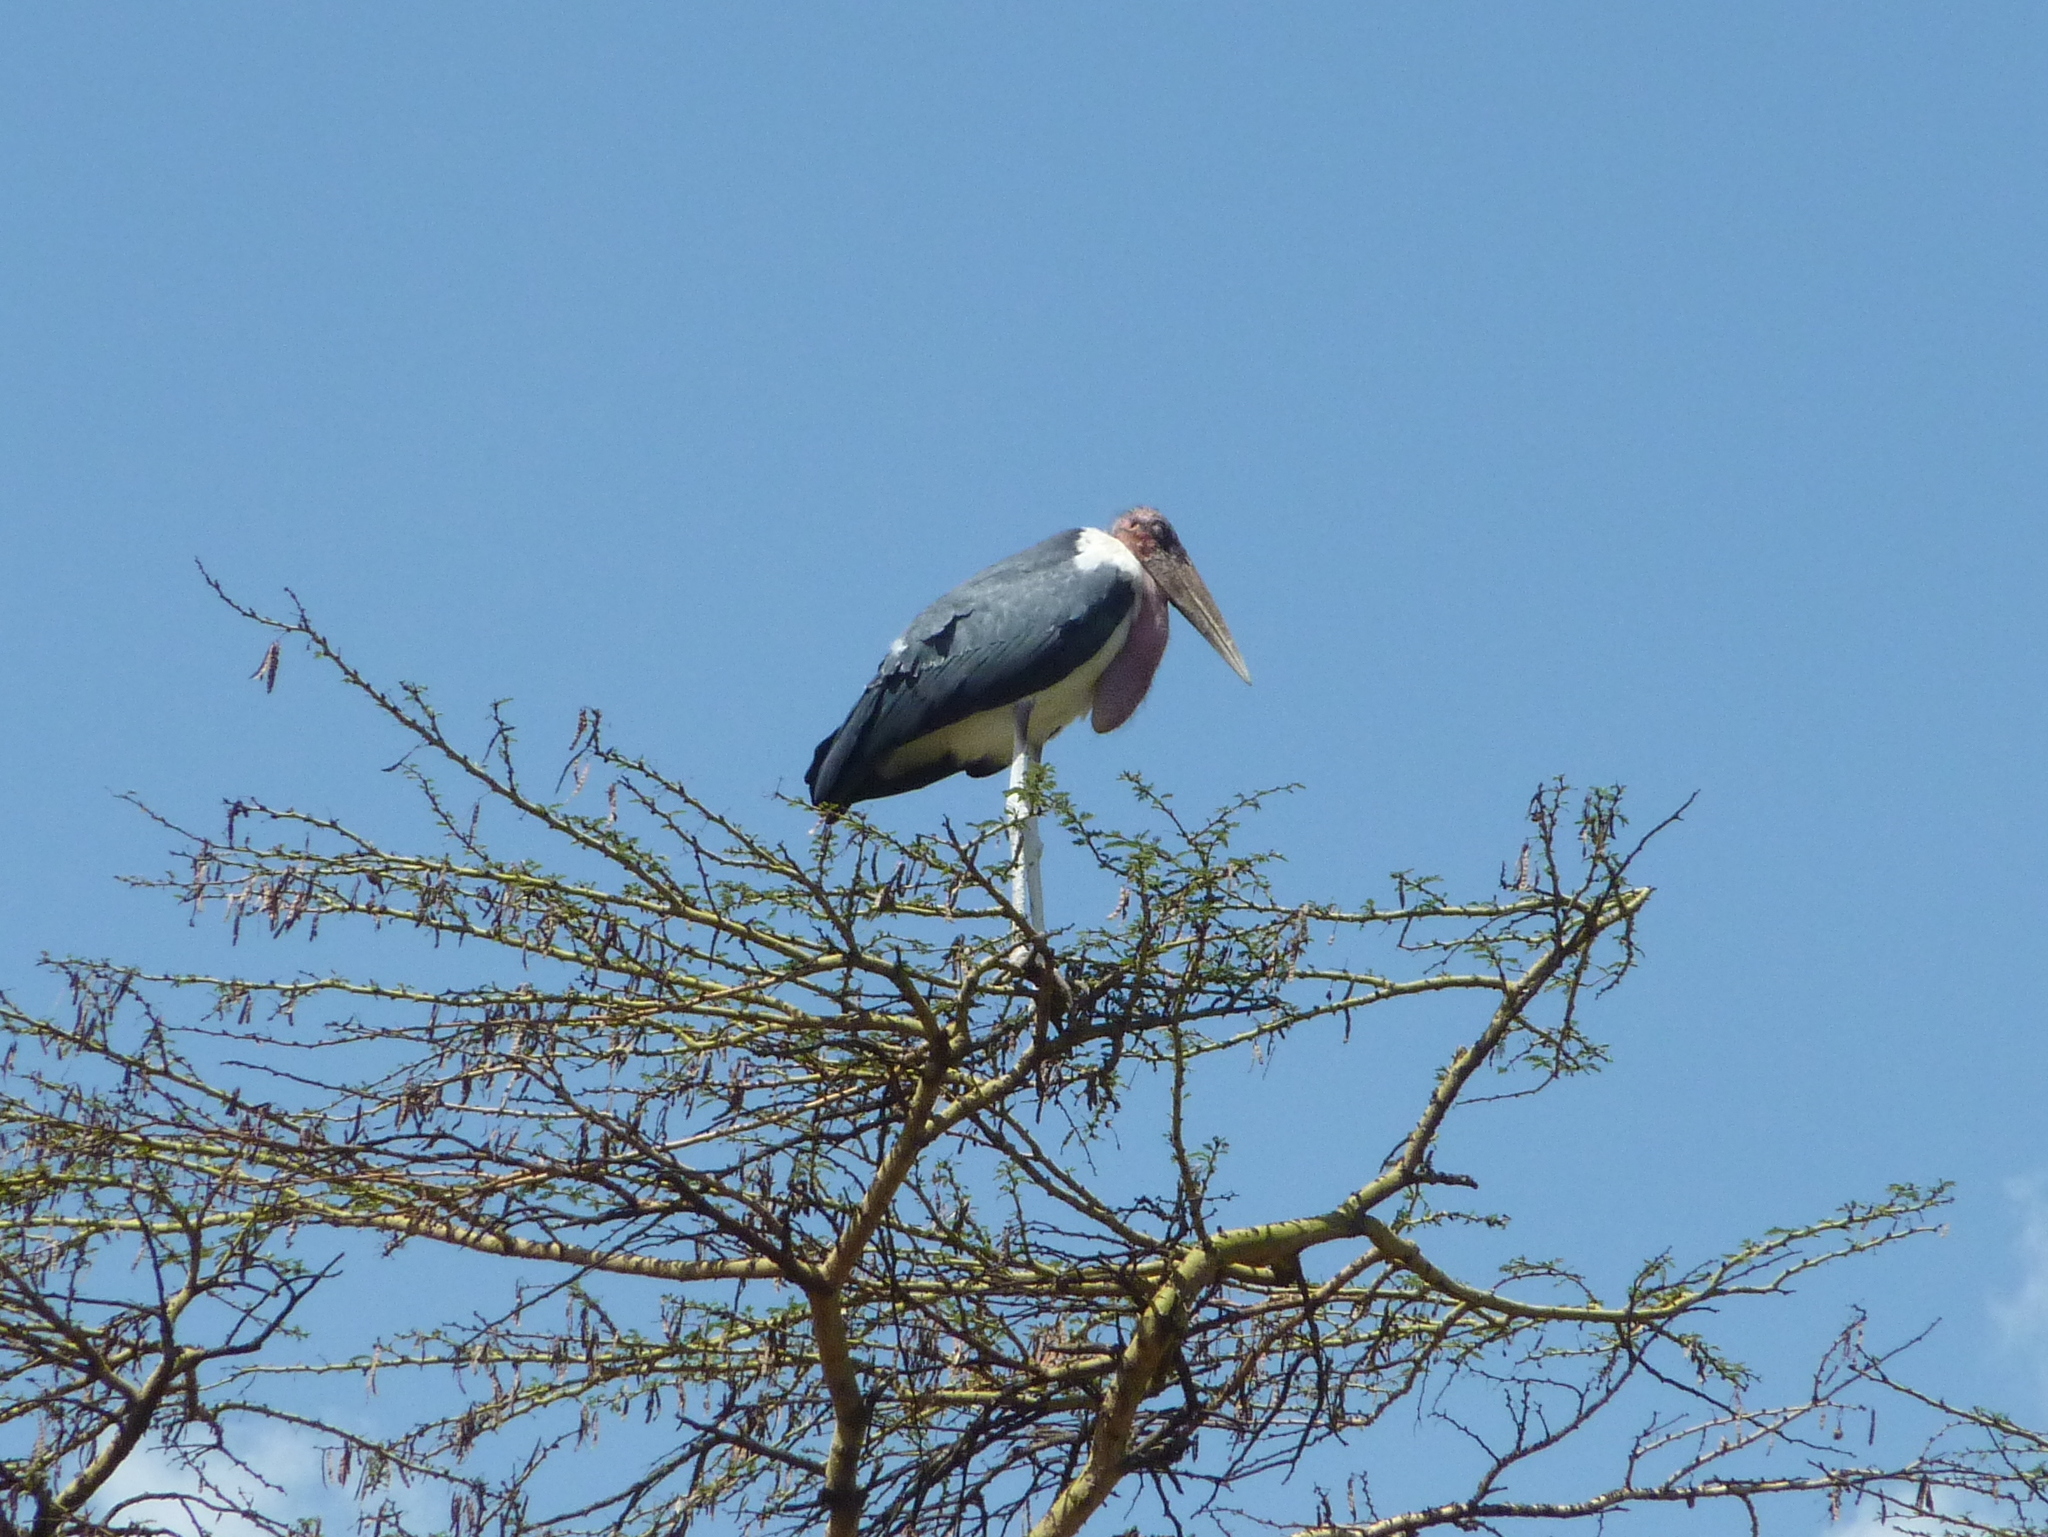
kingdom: Animalia
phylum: Chordata
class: Aves
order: Ciconiiformes
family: Ciconiidae
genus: Leptoptilos
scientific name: Leptoptilos crumenifer
